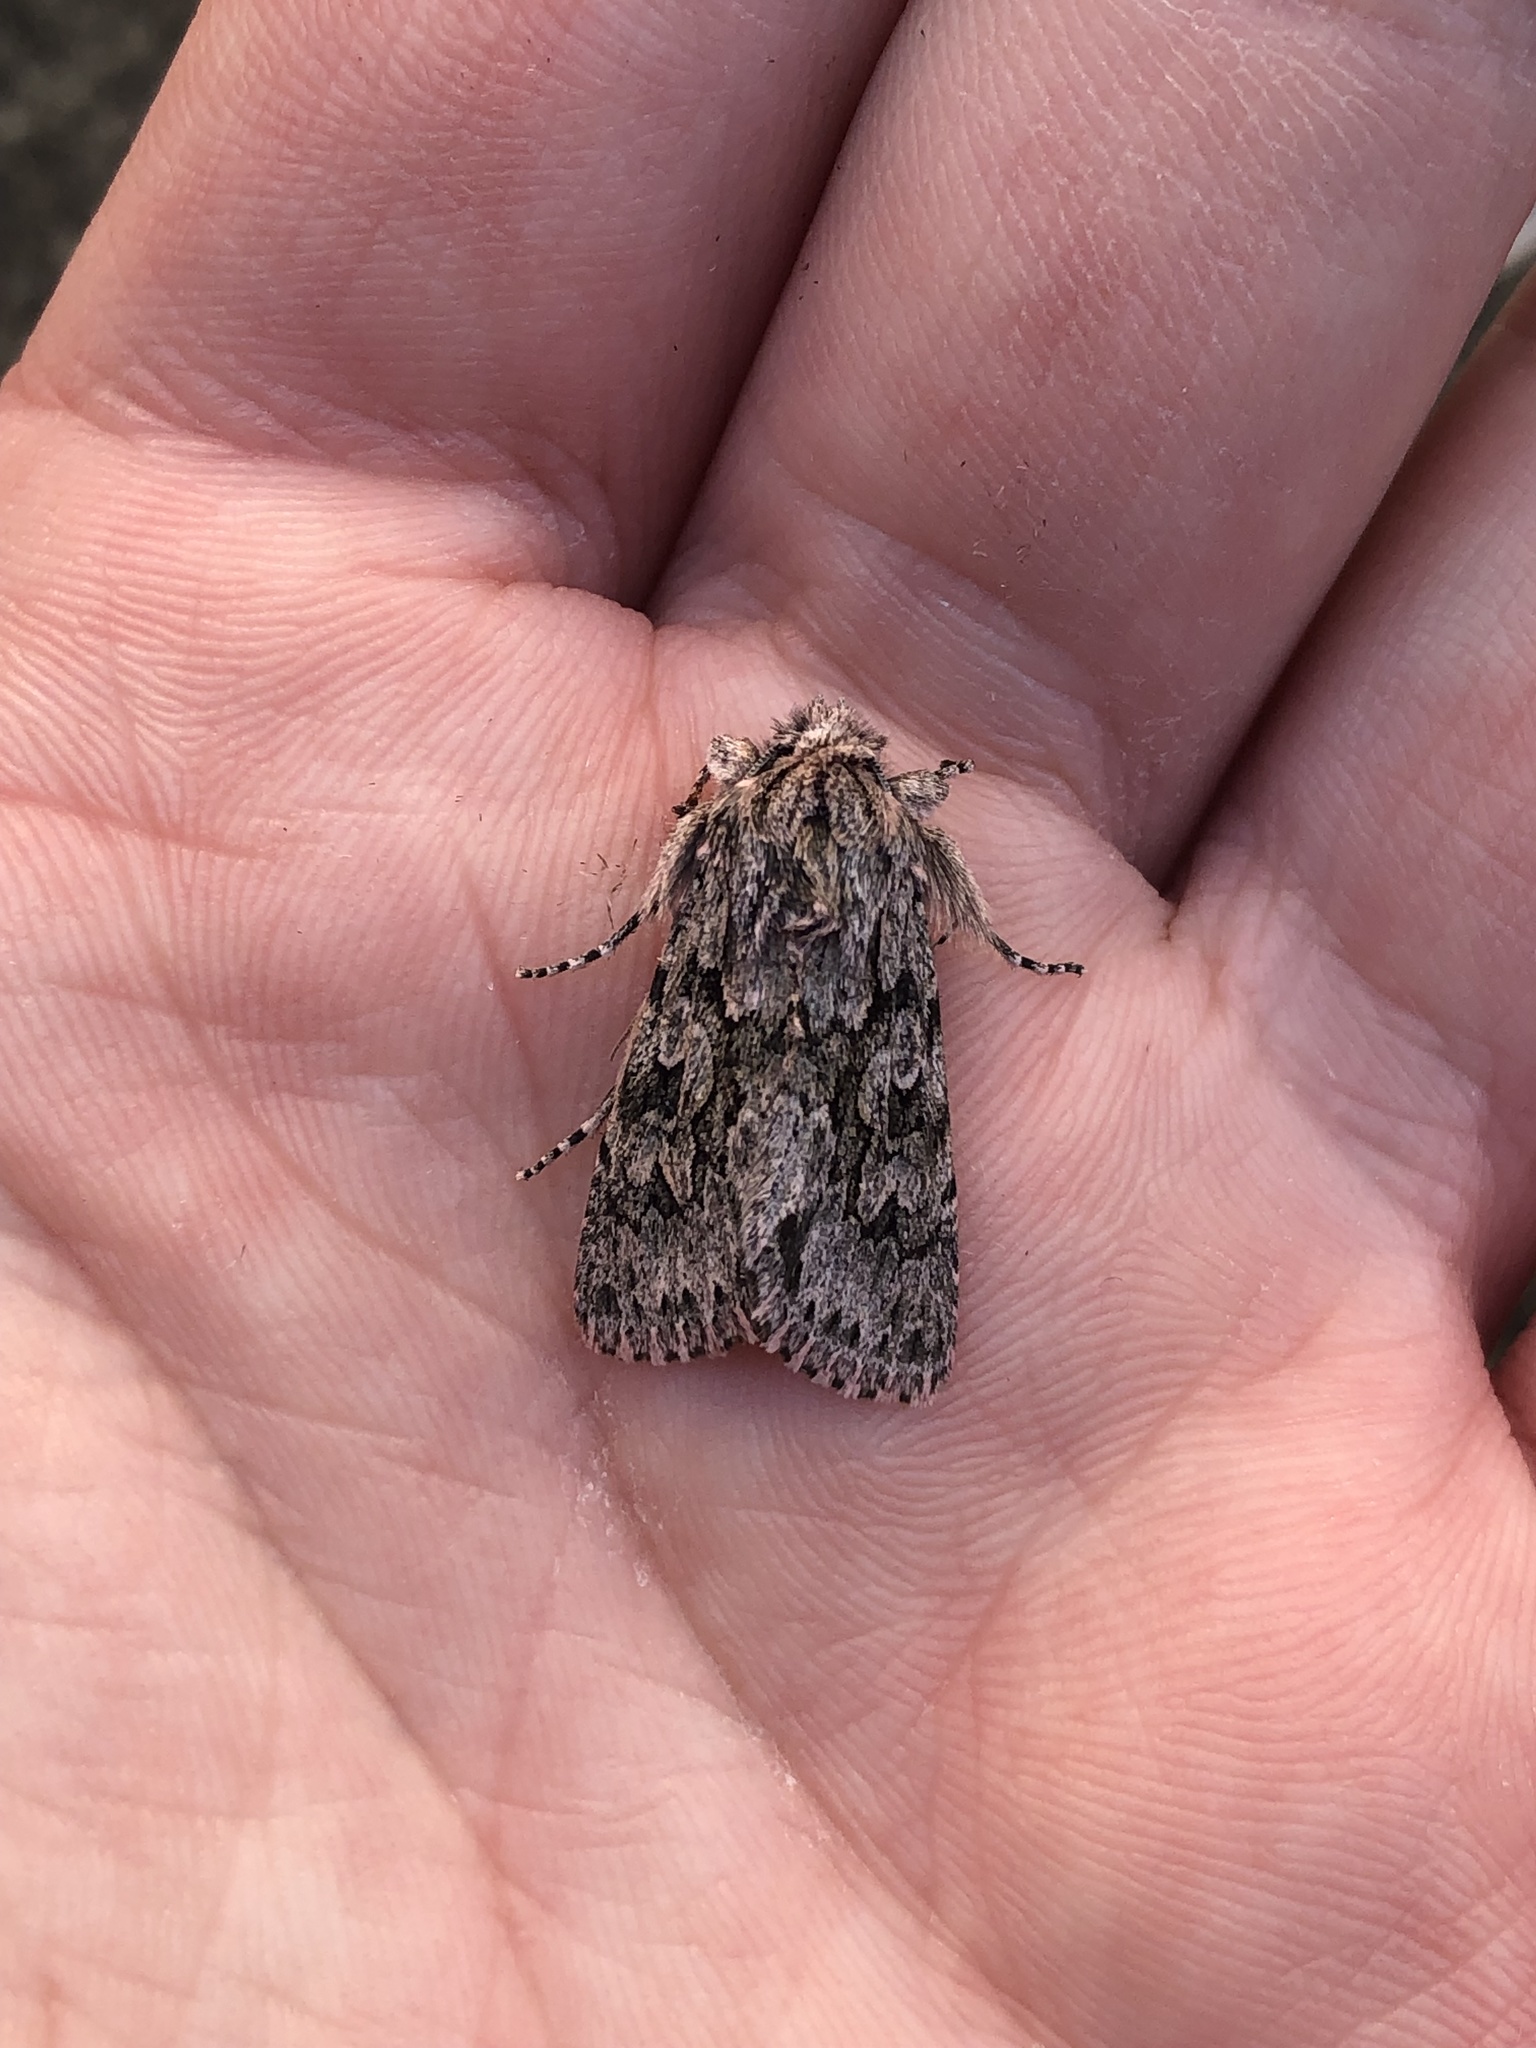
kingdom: Animalia
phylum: Arthropoda
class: Insecta
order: Lepidoptera
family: Noctuidae
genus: Xylocampa
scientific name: Xylocampa areola
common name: Early grey
